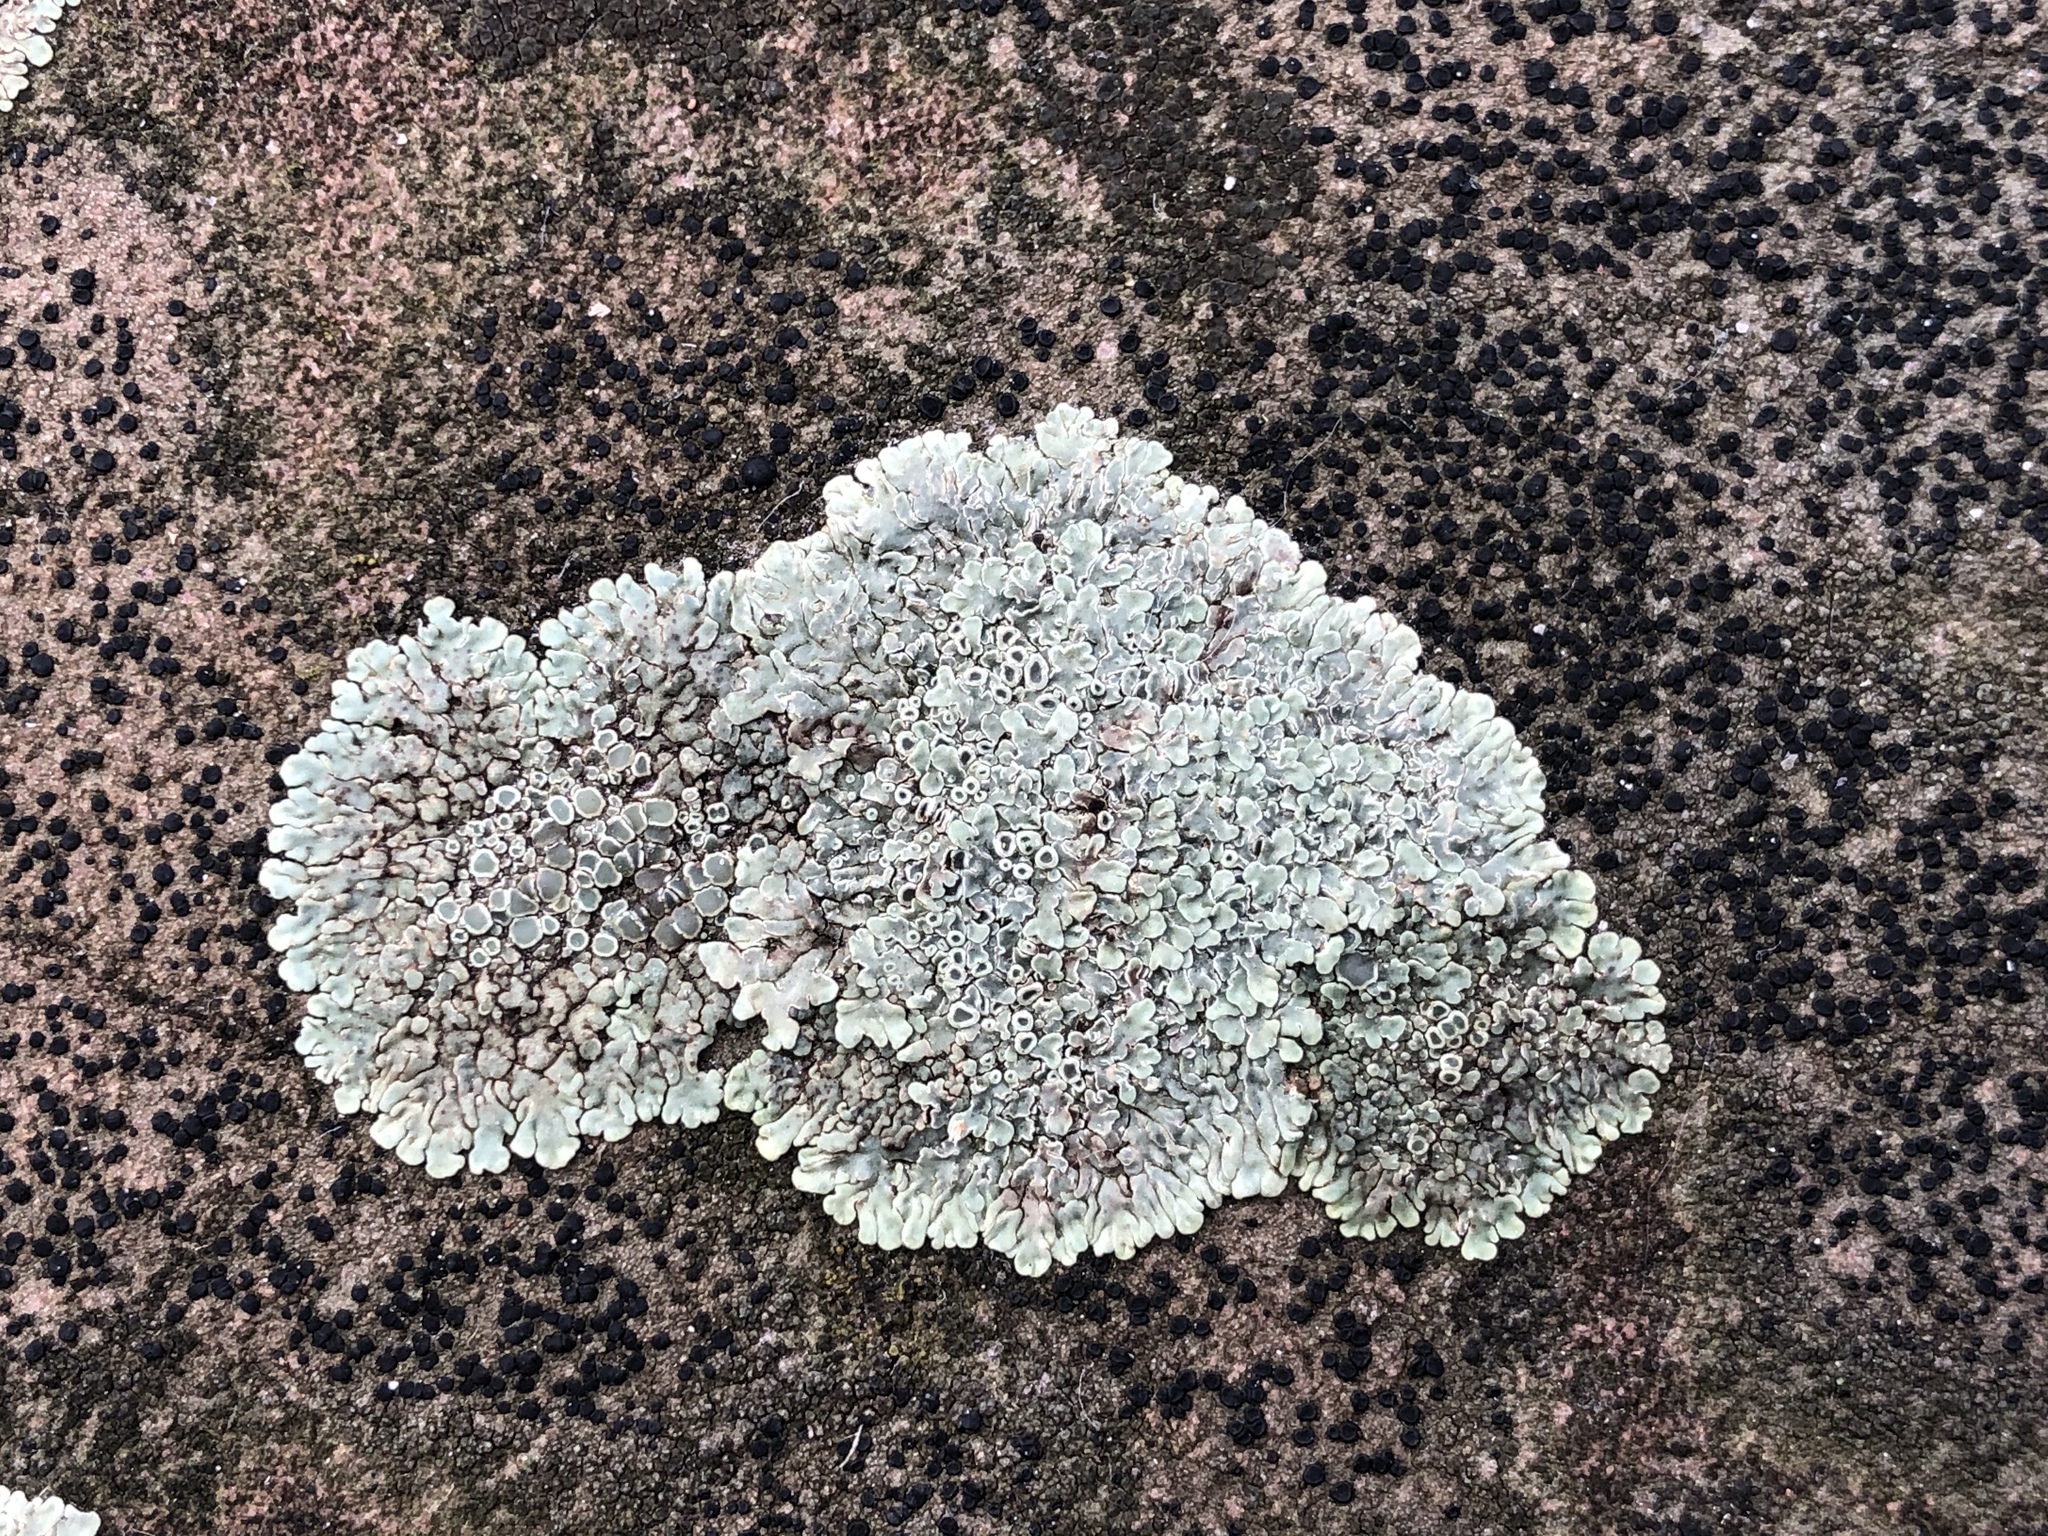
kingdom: Fungi
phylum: Ascomycota
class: Lecanoromycetes
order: Lecanorales
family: Lecanoraceae
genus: Protoparmeliopsis
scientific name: Protoparmeliopsis muralis
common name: Stonewall rim lichen
